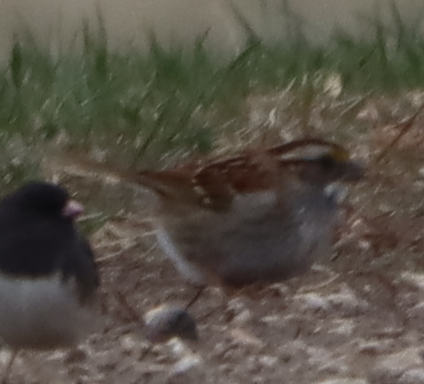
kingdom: Animalia
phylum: Chordata
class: Aves
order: Passeriformes
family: Passerellidae
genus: Zonotrichia
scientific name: Zonotrichia albicollis
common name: White-throated sparrow
